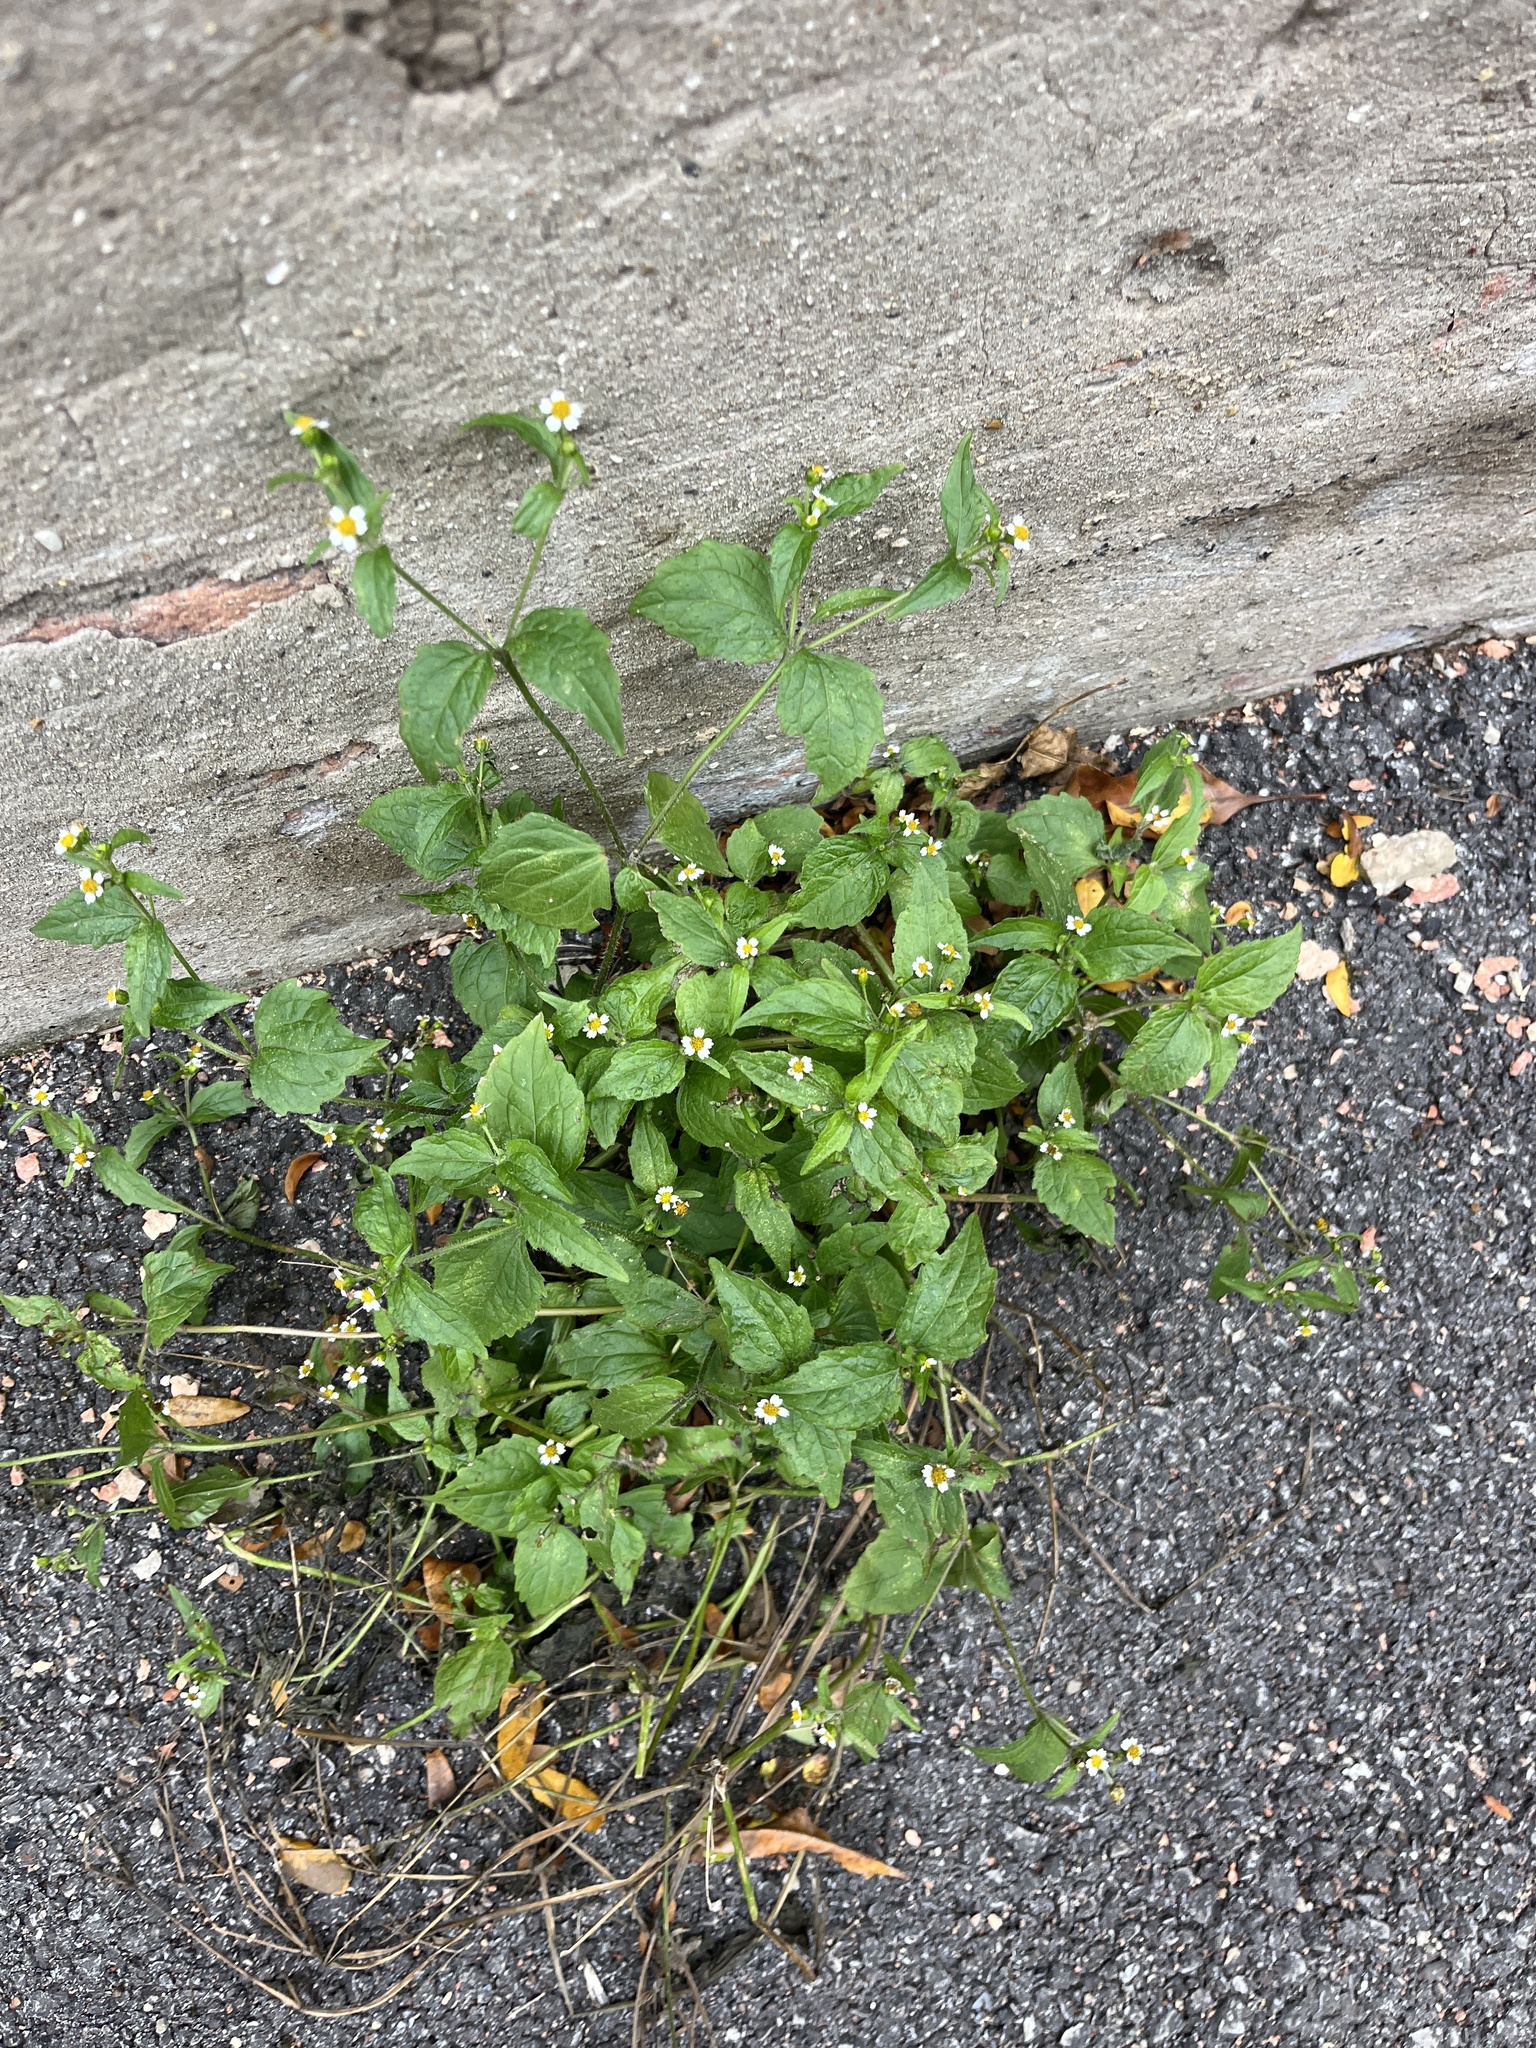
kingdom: Plantae
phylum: Tracheophyta
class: Magnoliopsida
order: Asterales
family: Asteraceae
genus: Galinsoga
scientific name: Galinsoga quadriradiata
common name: Shaggy soldier
